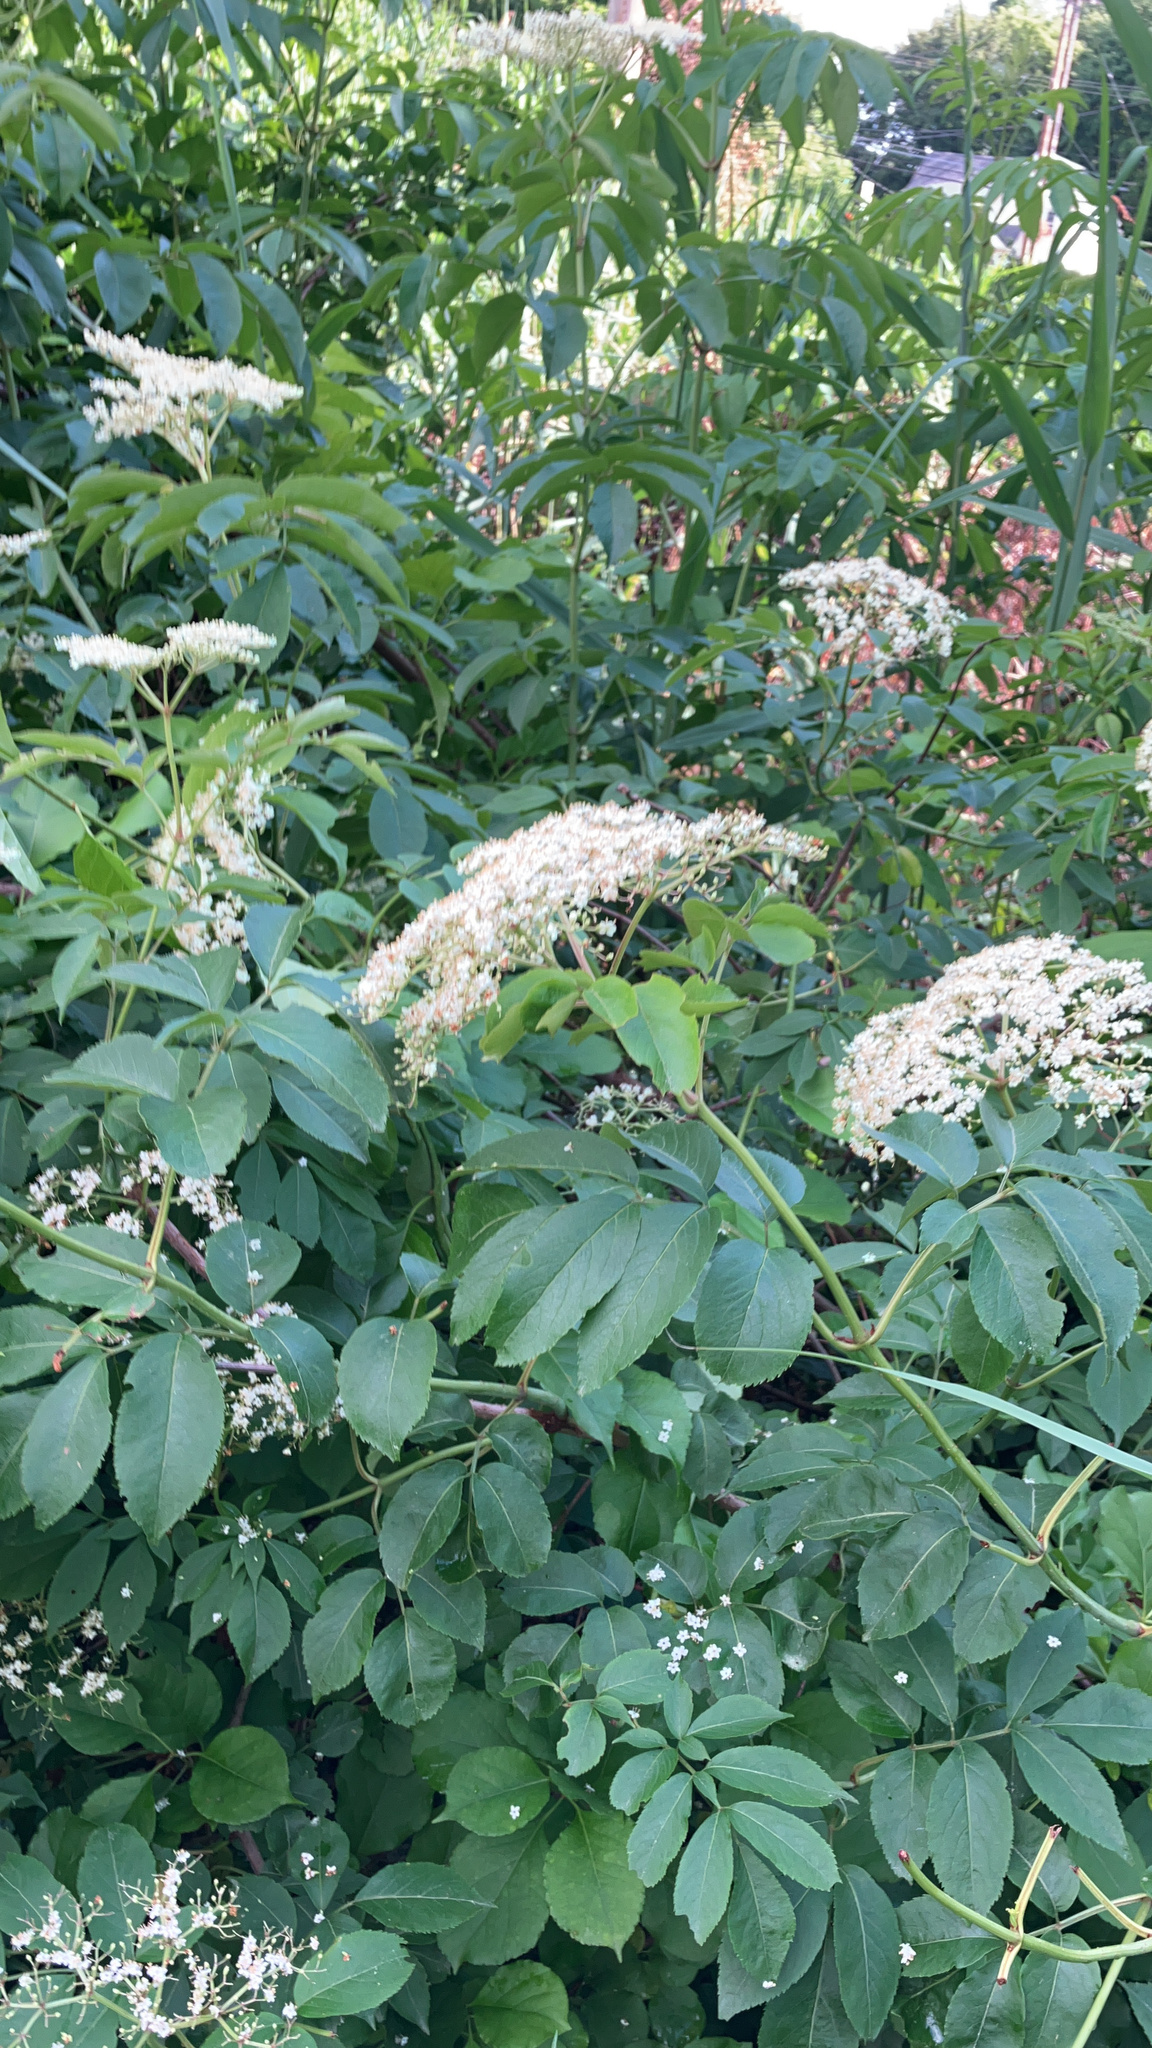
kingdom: Plantae
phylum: Tracheophyta
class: Magnoliopsida
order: Dipsacales
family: Viburnaceae
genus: Sambucus
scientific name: Sambucus canadensis
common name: American elder
